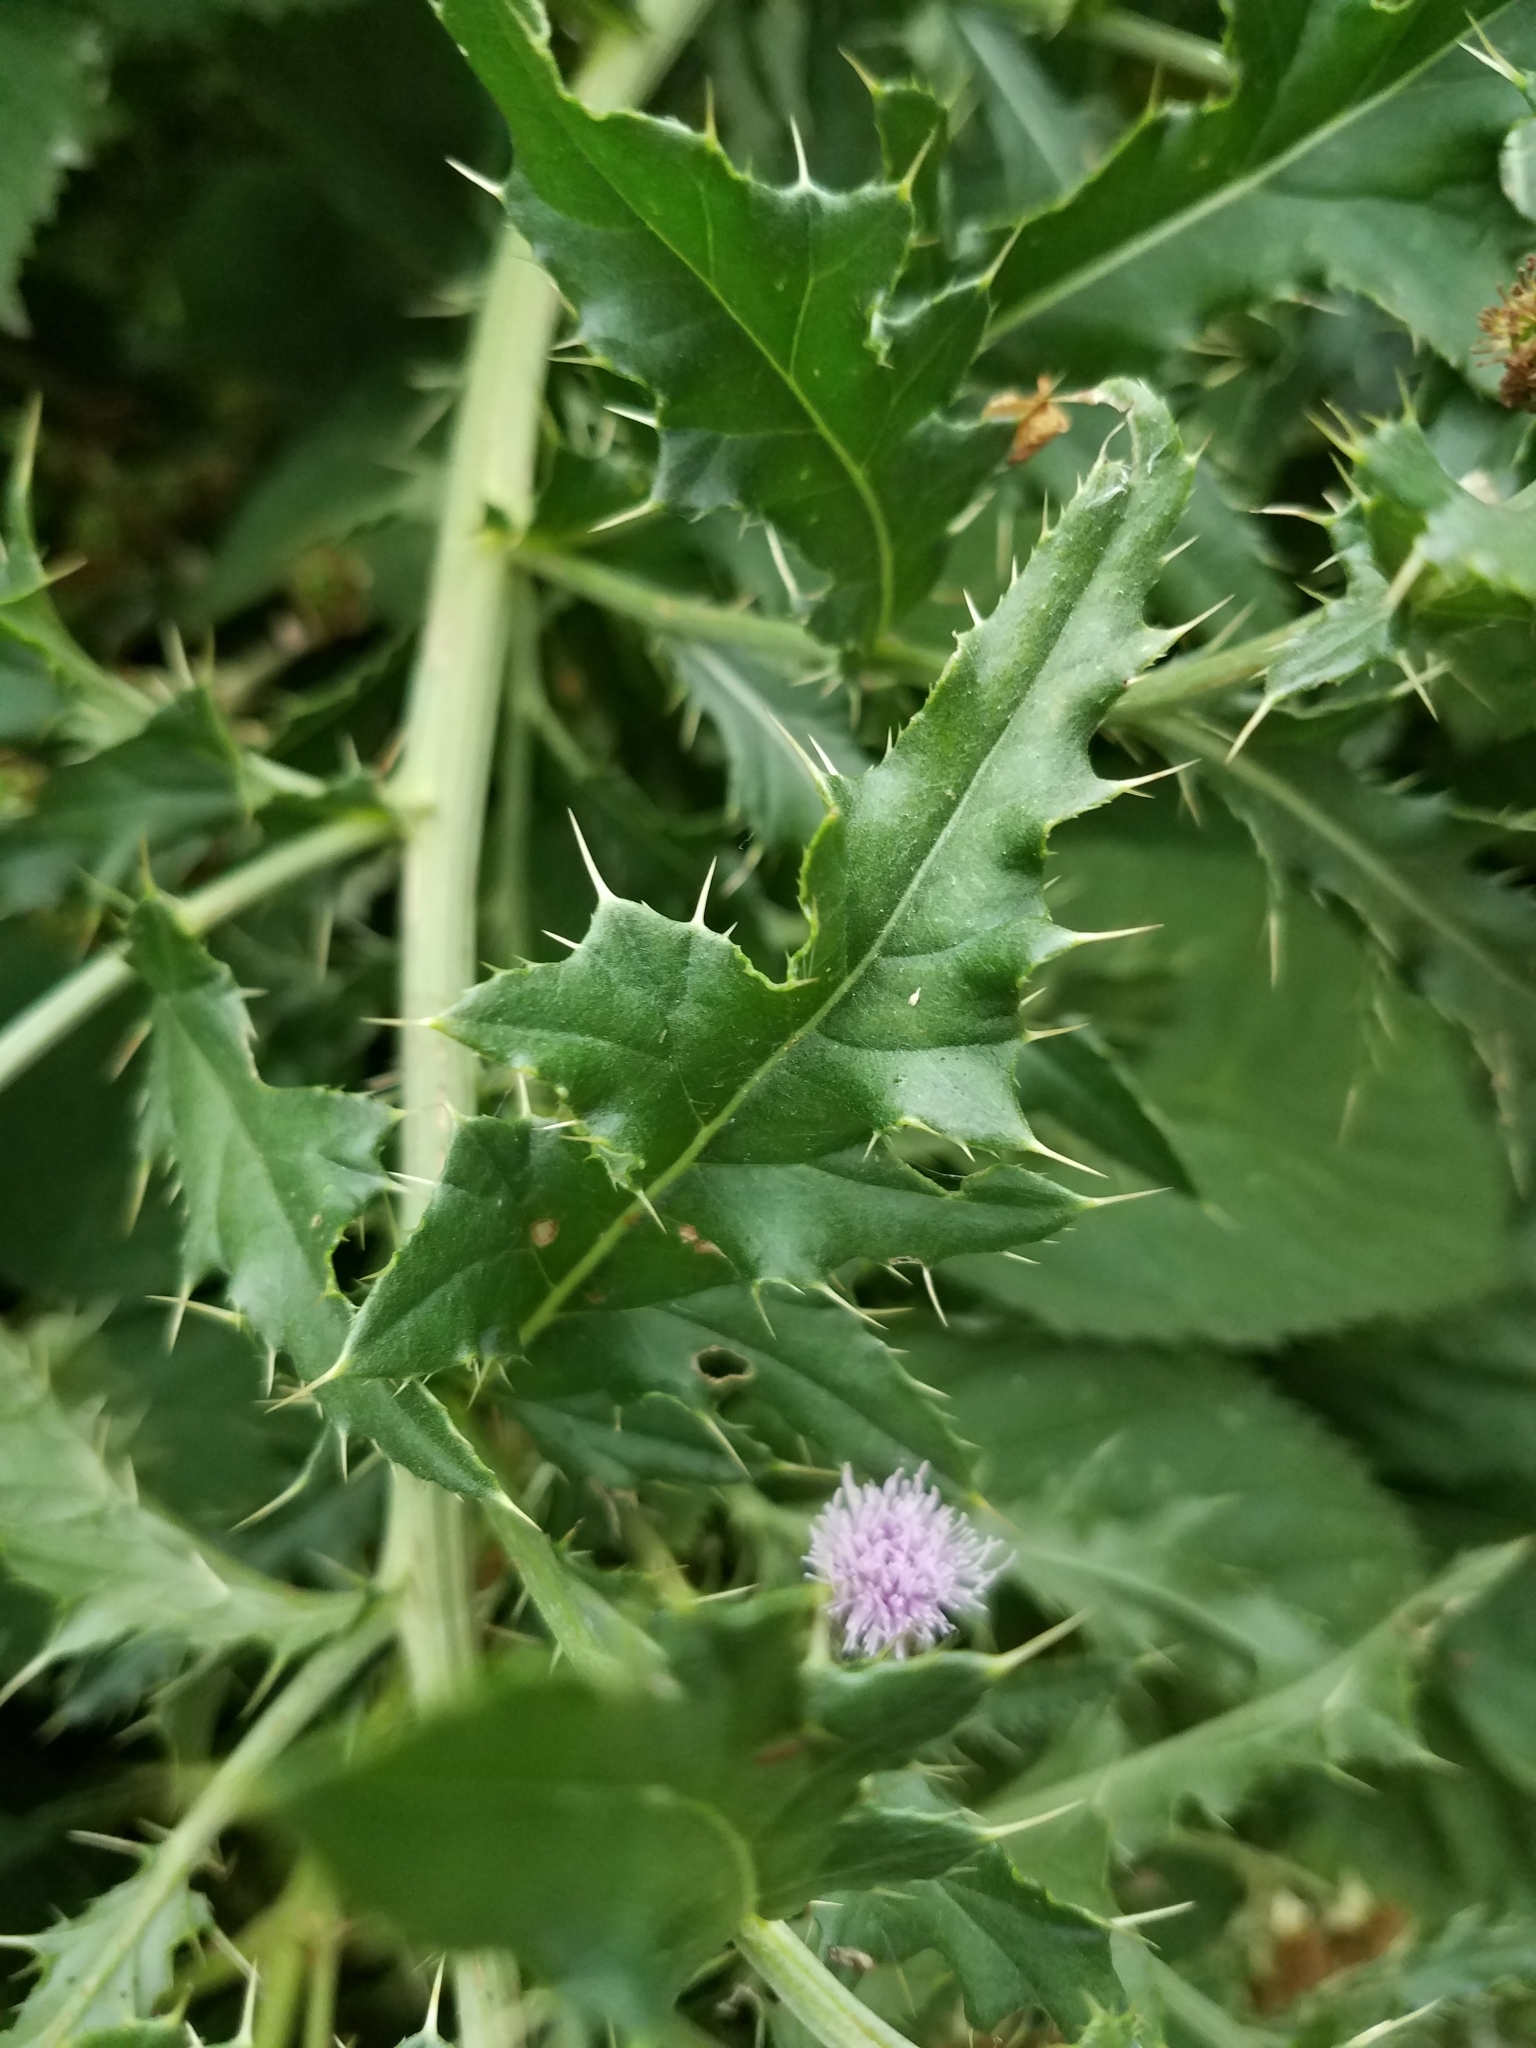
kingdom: Plantae
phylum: Tracheophyta
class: Magnoliopsida
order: Asterales
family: Asteraceae
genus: Cirsium
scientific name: Cirsium arvense
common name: Creeping thistle
